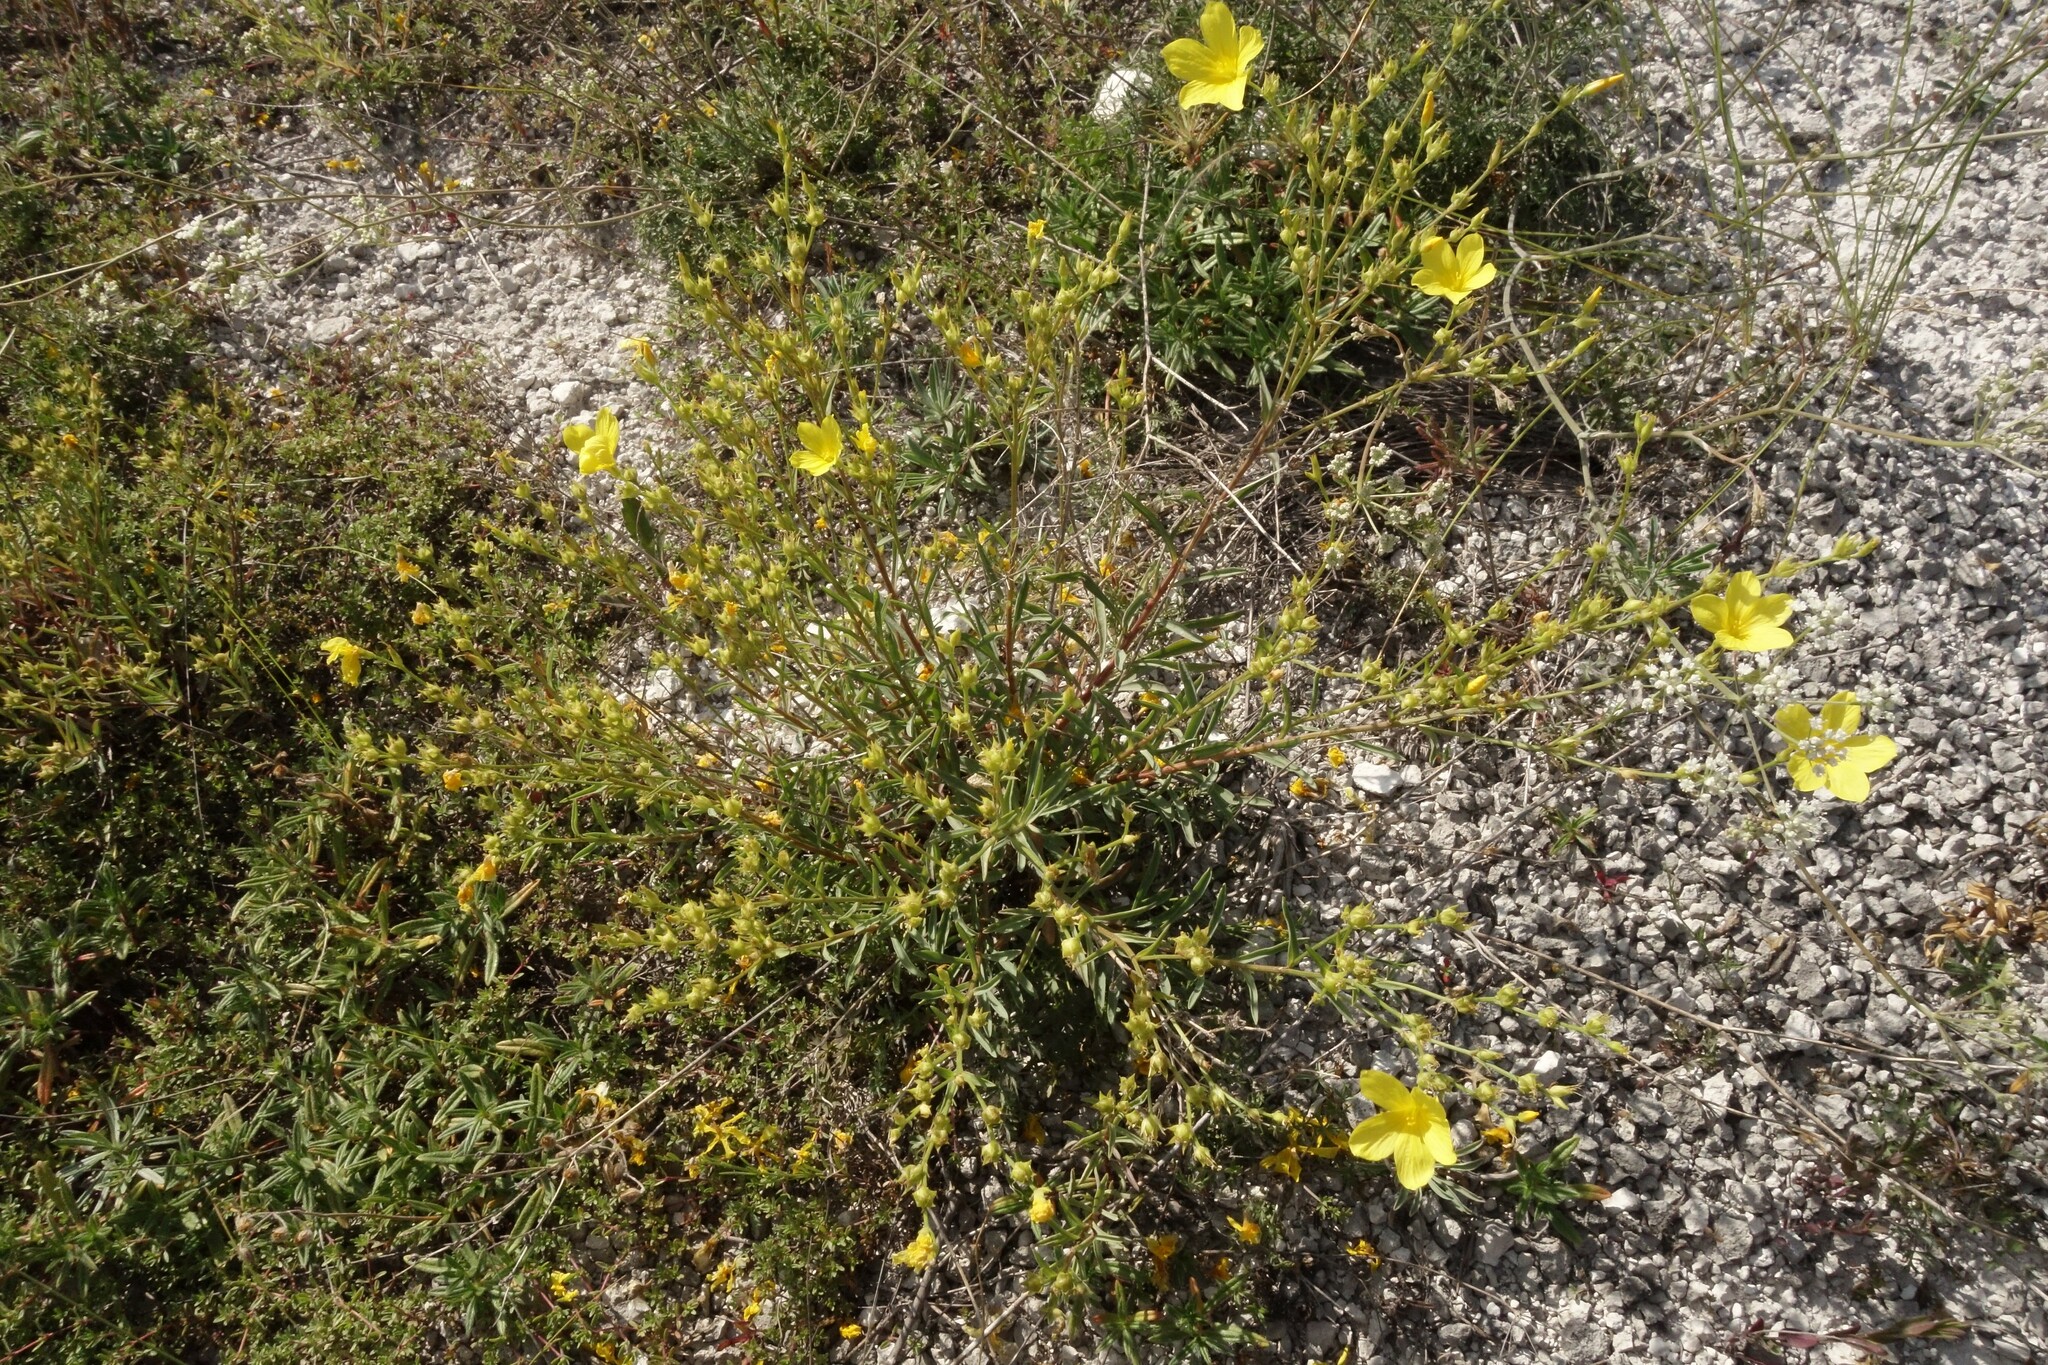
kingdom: Plantae
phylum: Tracheophyta
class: Magnoliopsida
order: Malpighiales
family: Linaceae
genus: Linum
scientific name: Linum ucranicum
